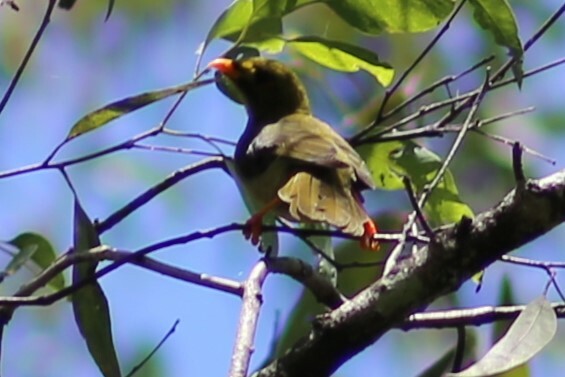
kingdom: Animalia
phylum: Chordata
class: Aves
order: Passeriformes
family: Meliphagidae
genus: Manorina
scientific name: Manorina melanophrys
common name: Bell miner
